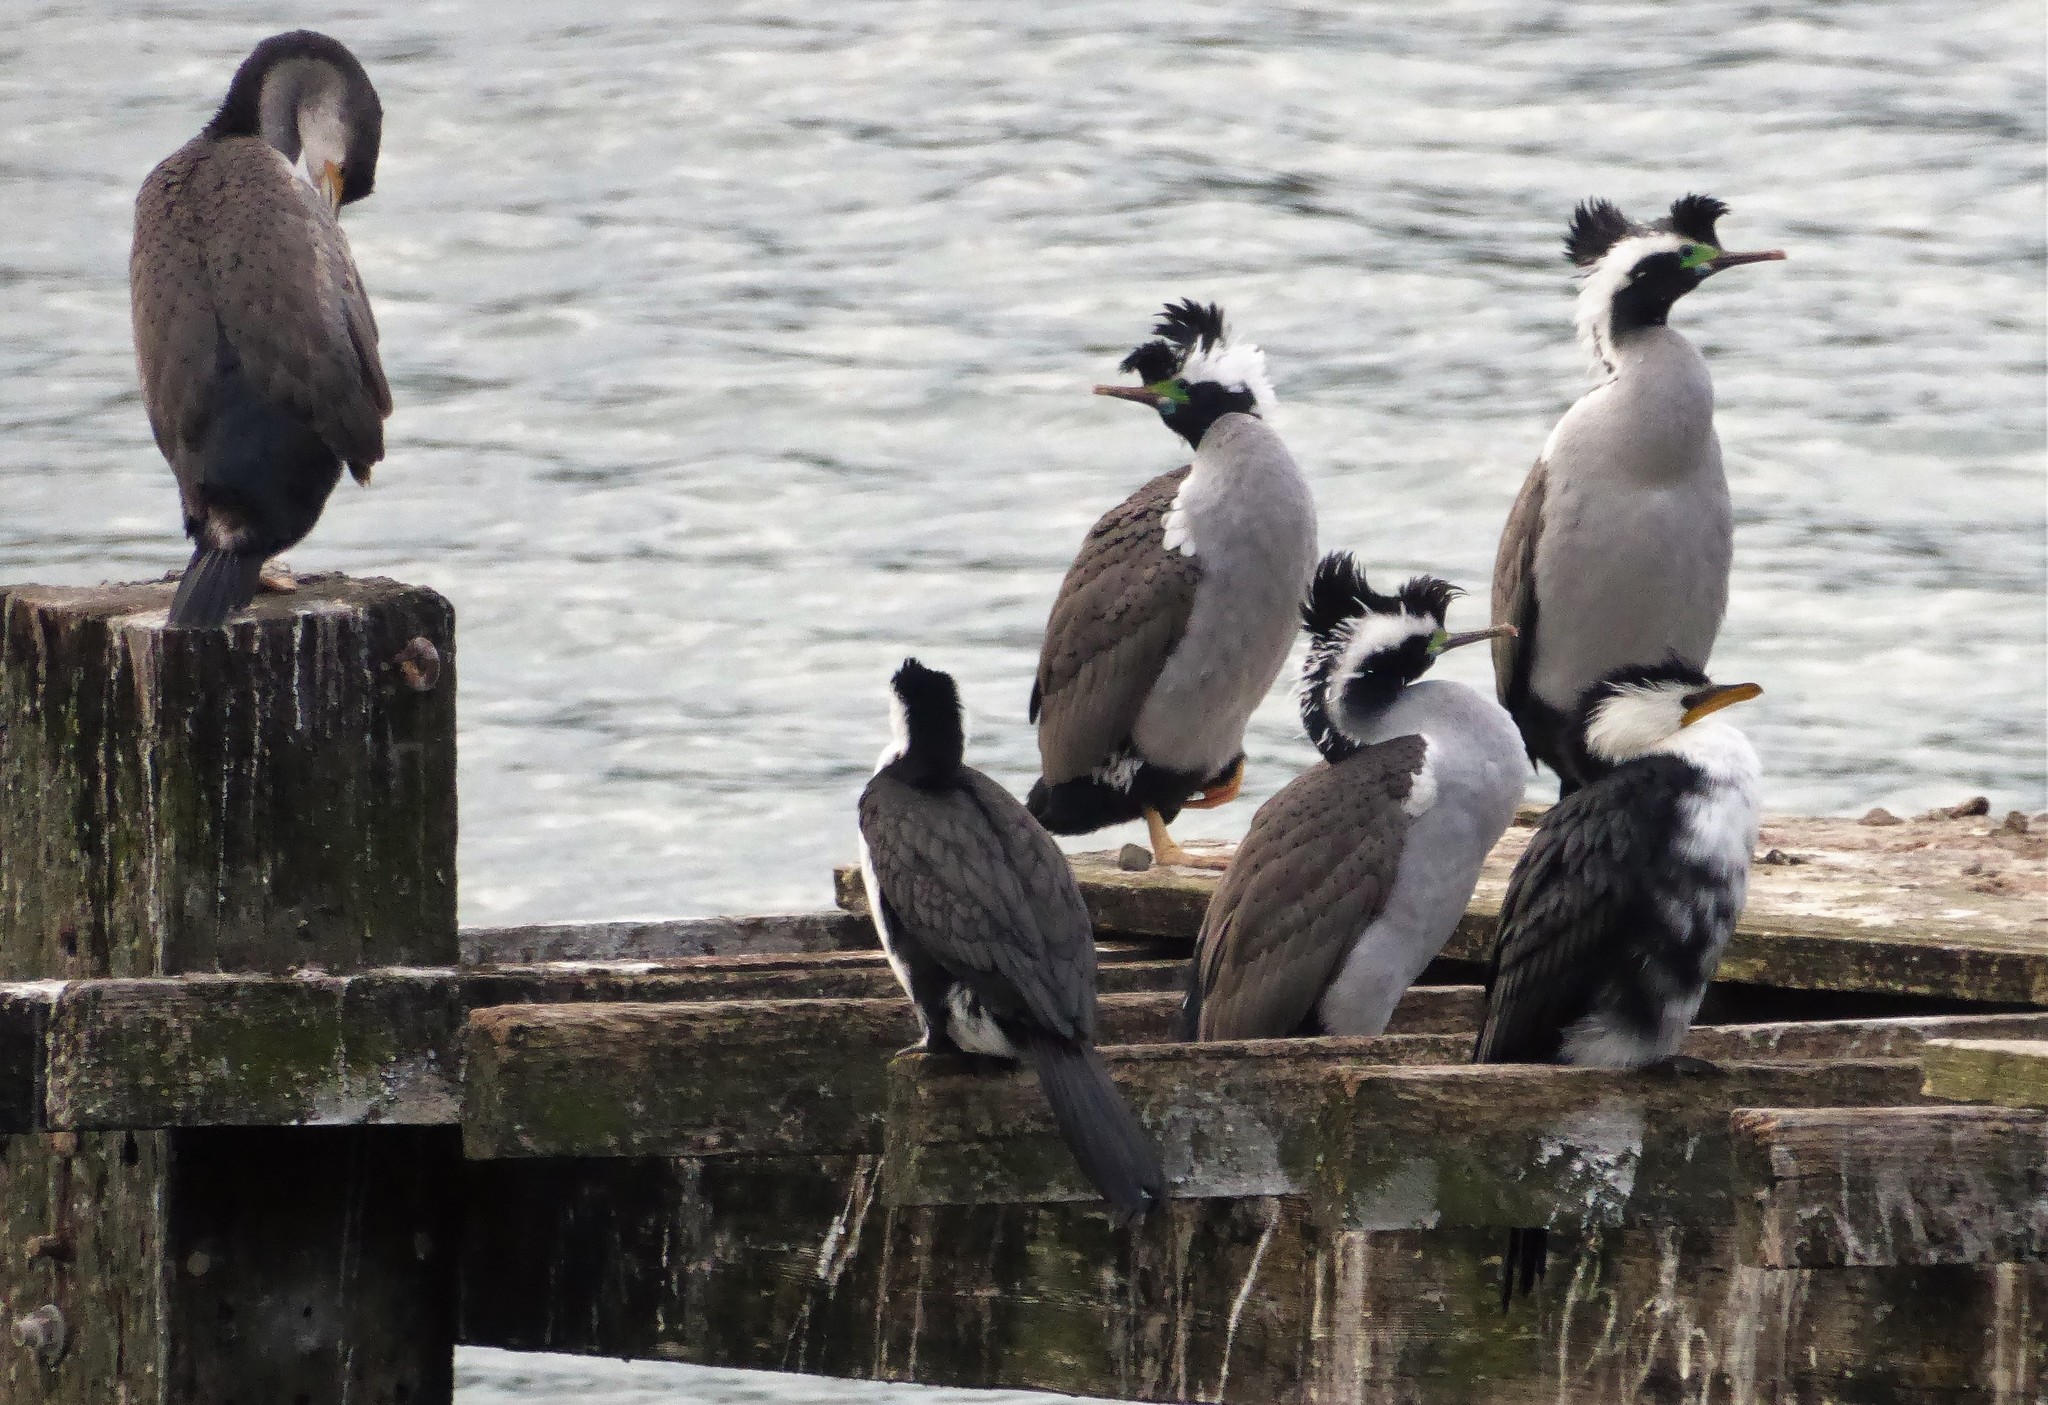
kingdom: Animalia
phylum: Chordata
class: Aves
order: Suliformes
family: Phalacrocoracidae
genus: Phalacrocorax
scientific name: Phalacrocorax punctatus
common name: Spotted shag
